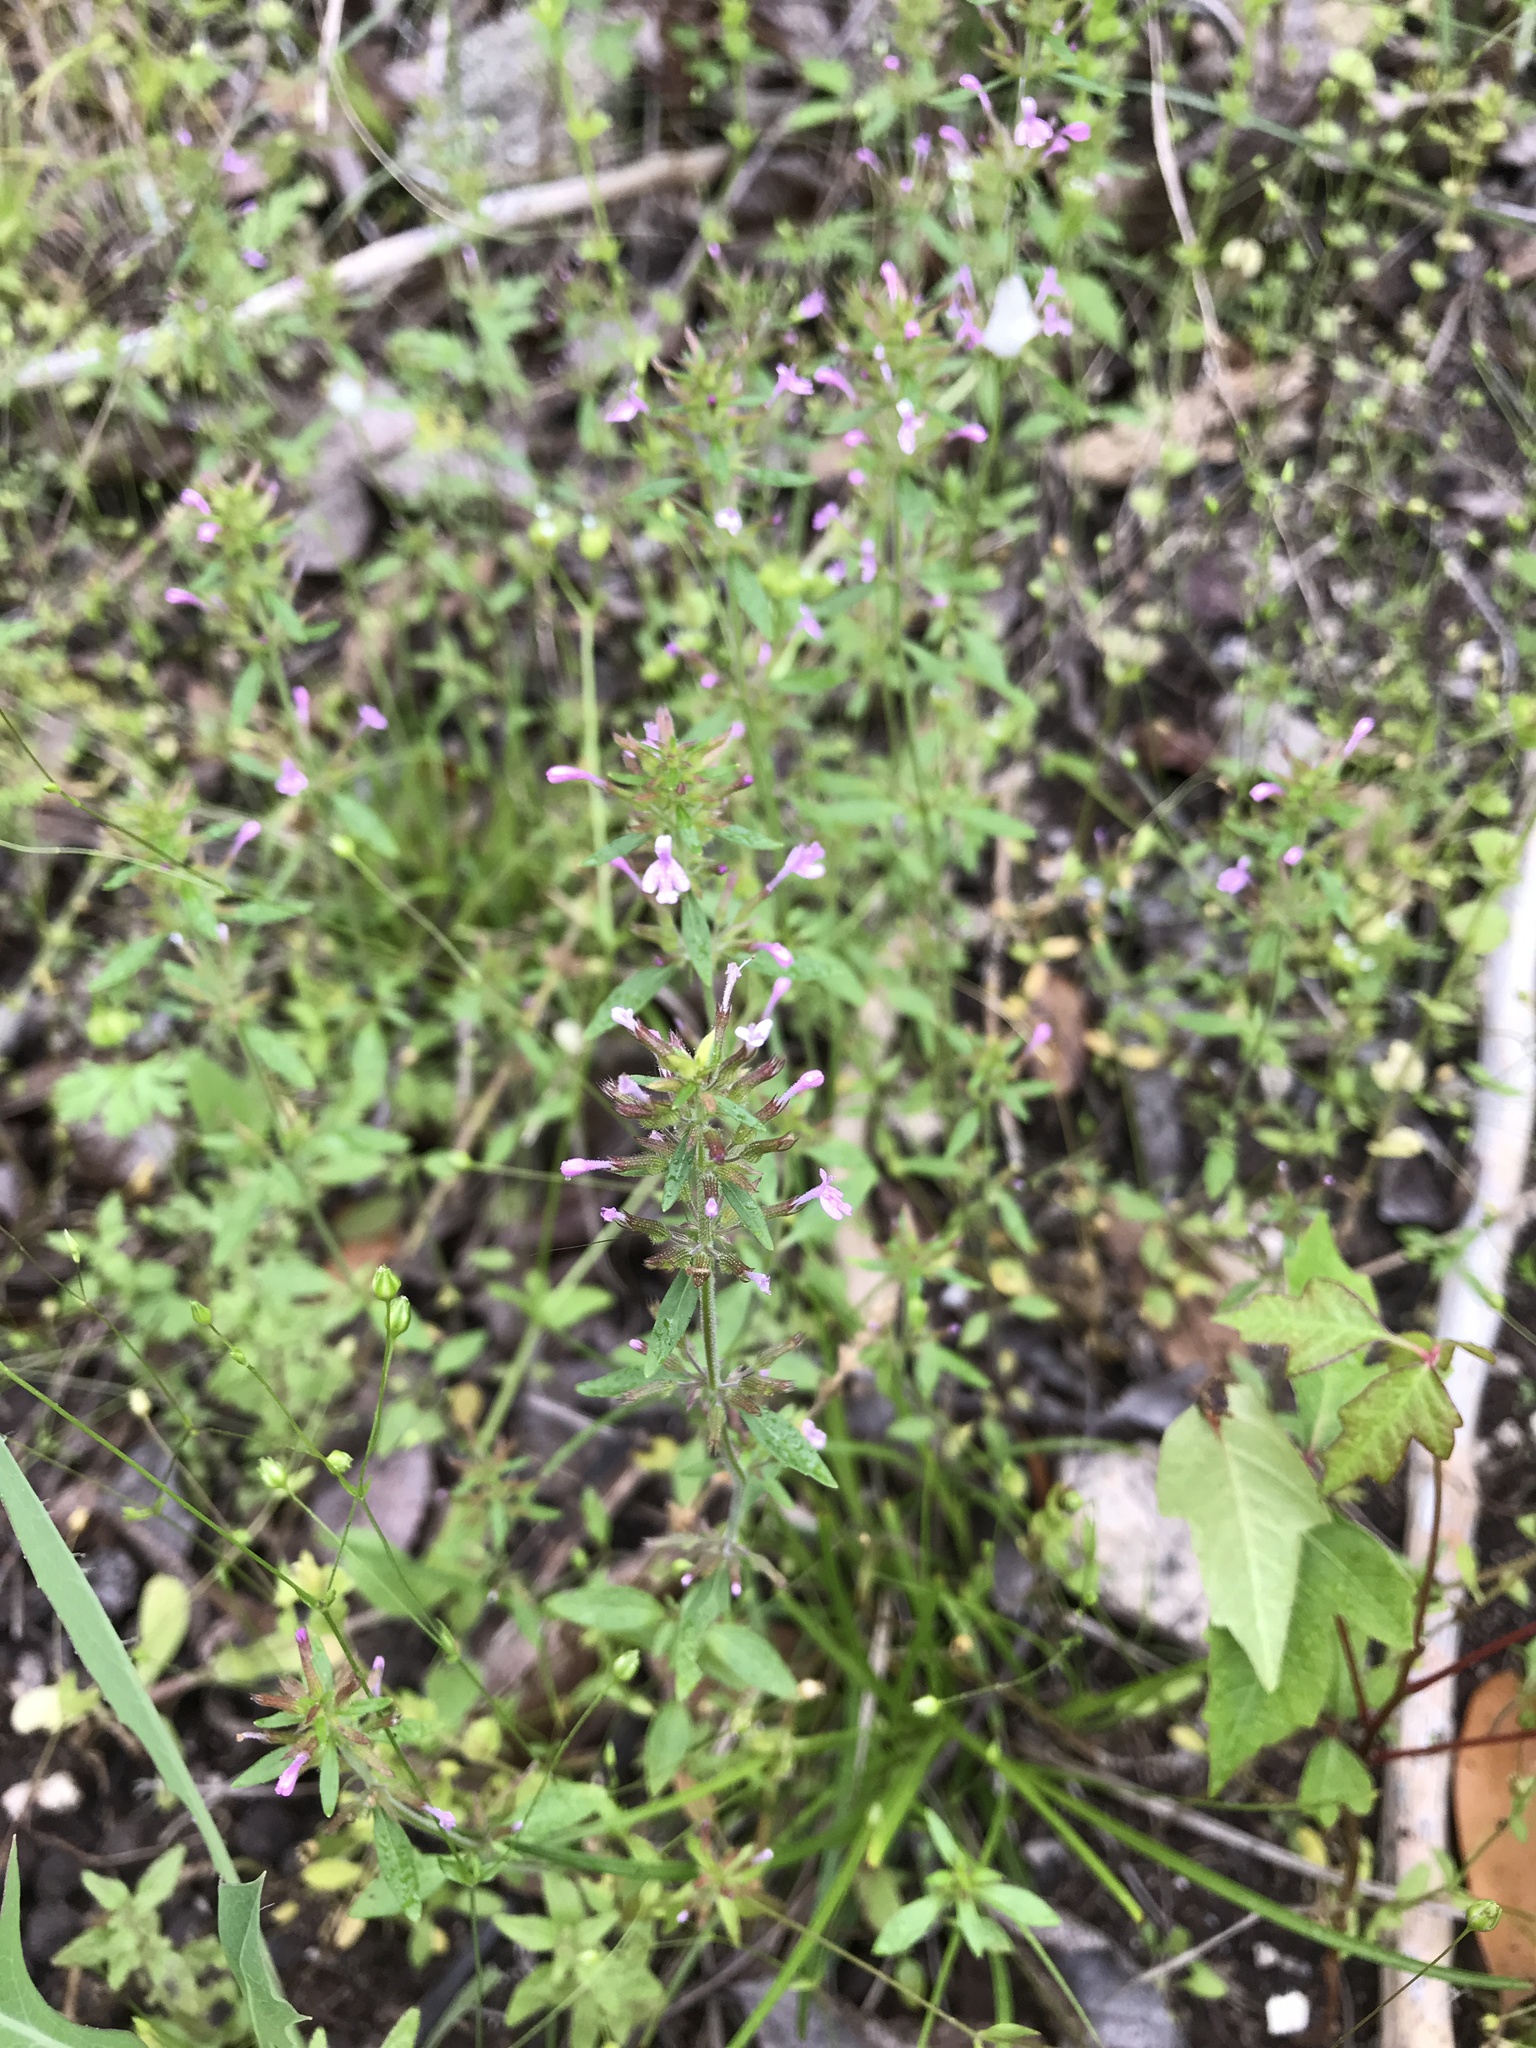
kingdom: Plantae
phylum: Tracheophyta
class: Magnoliopsida
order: Lamiales
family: Lamiaceae
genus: Hedeoma
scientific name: Hedeoma acinoides
